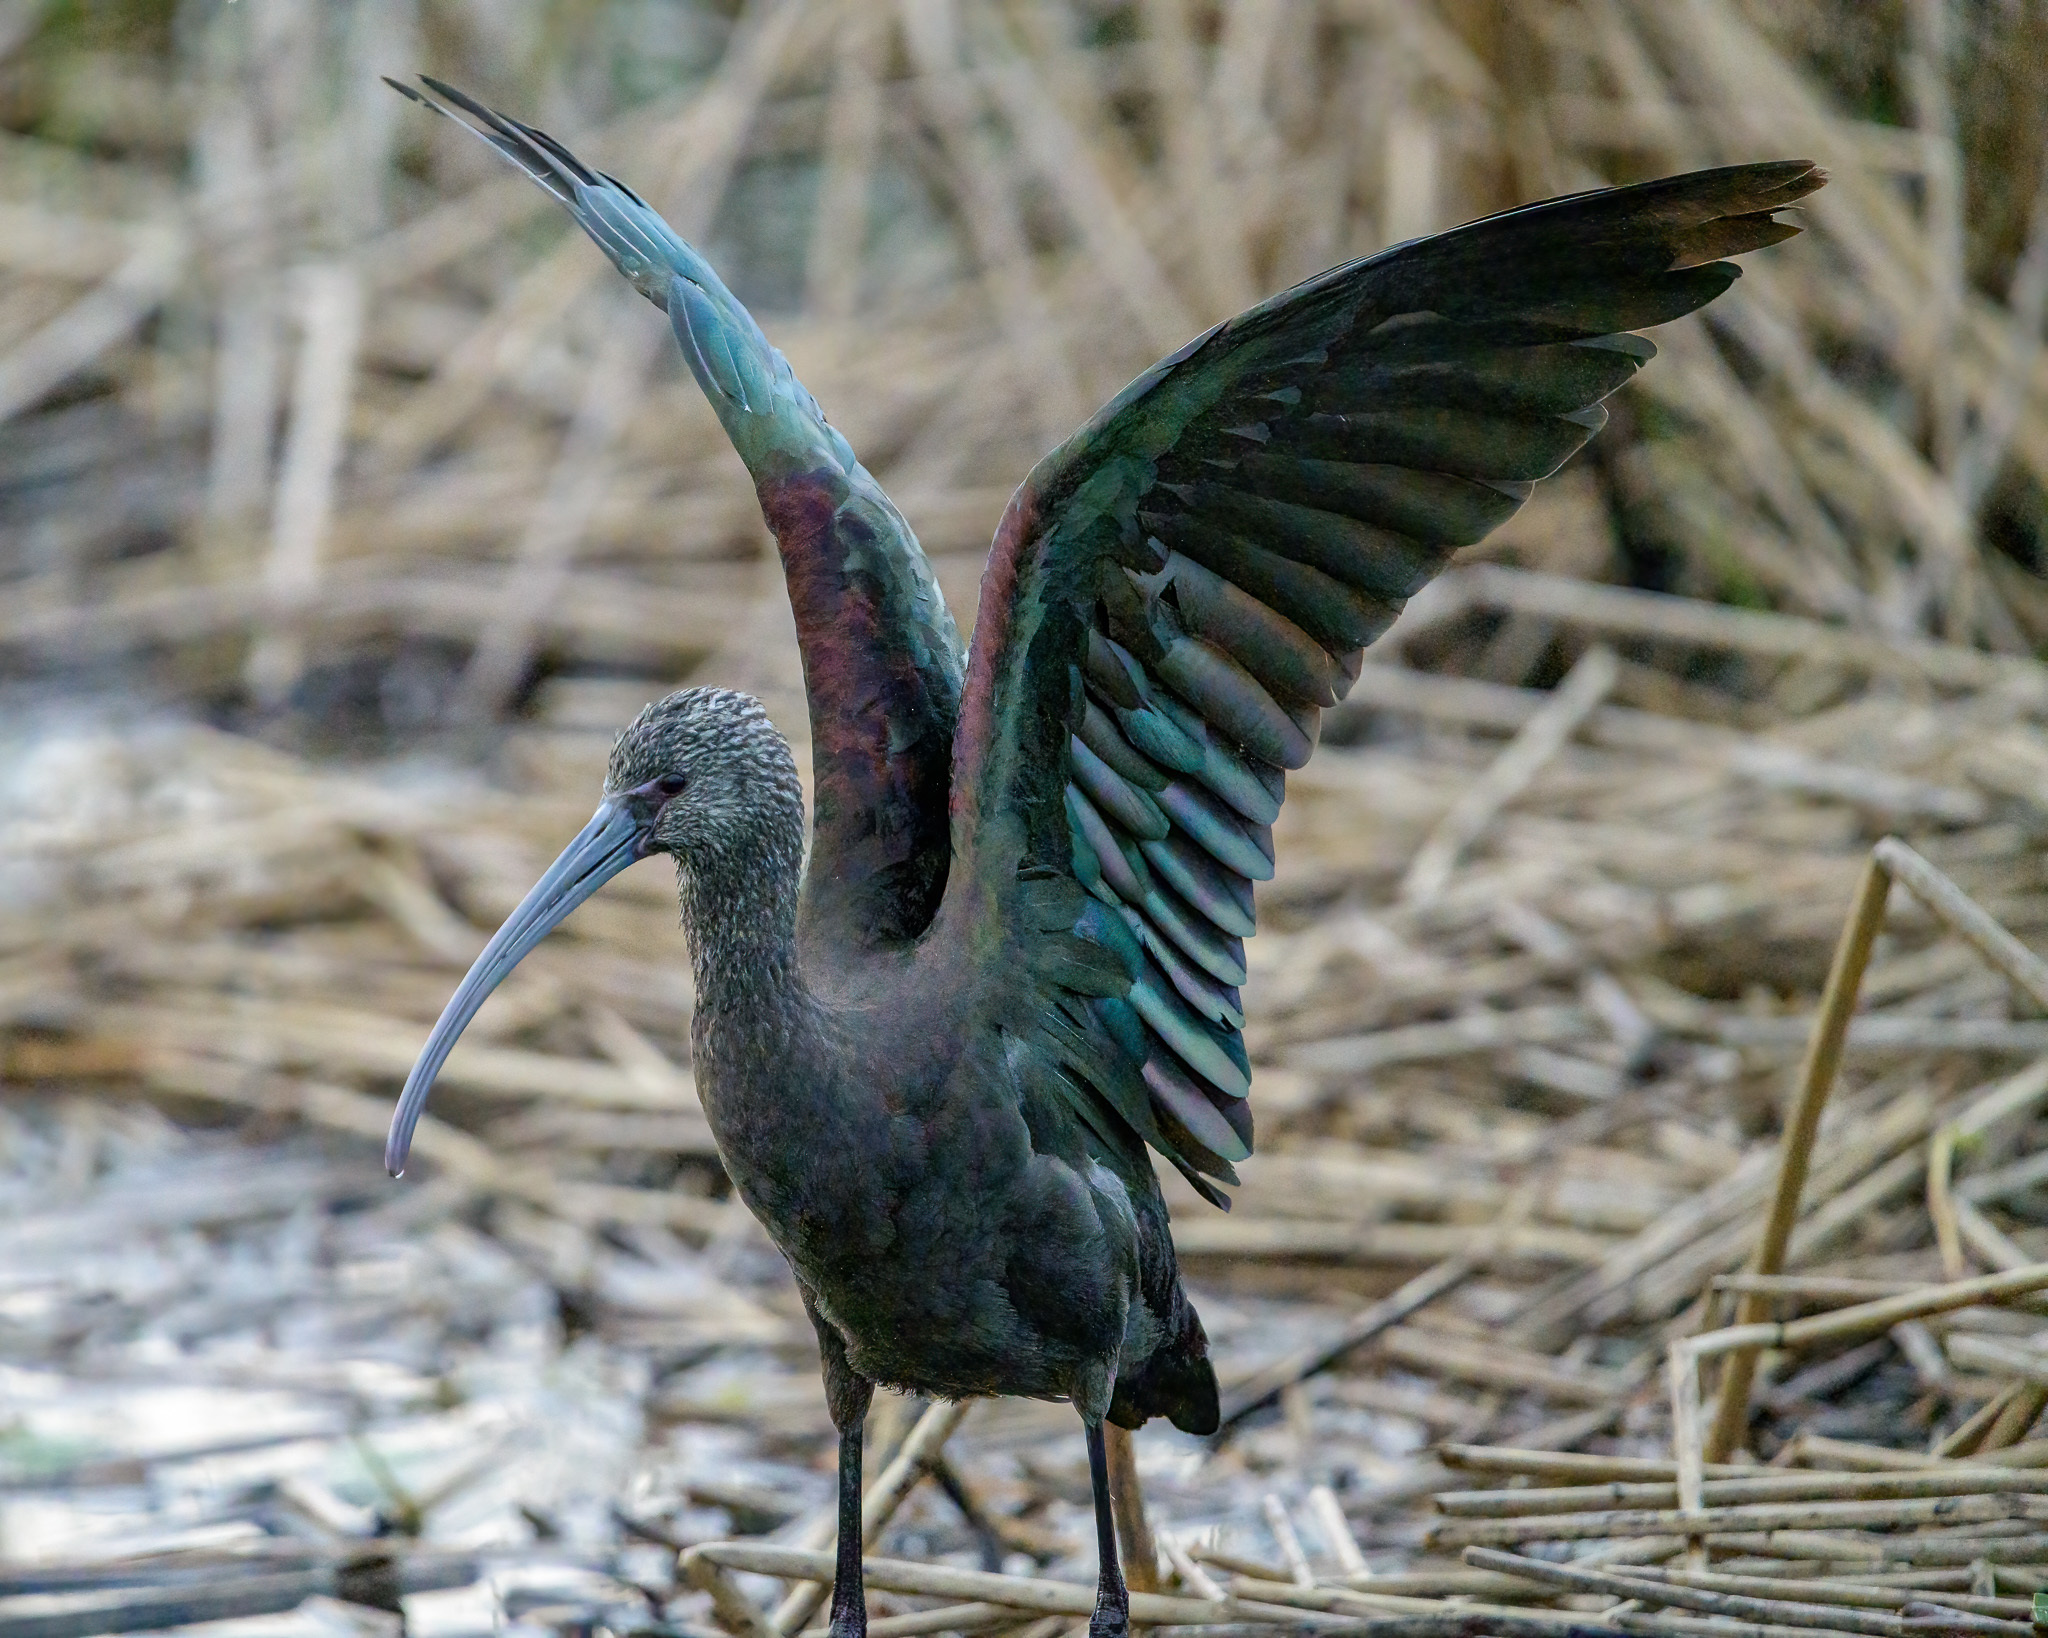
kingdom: Animalia
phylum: Chordata
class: Aves
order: Pelecaniformes
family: Threskiornithidae
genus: Plegadis
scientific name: Plegadis chihi
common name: White-faced ibis
